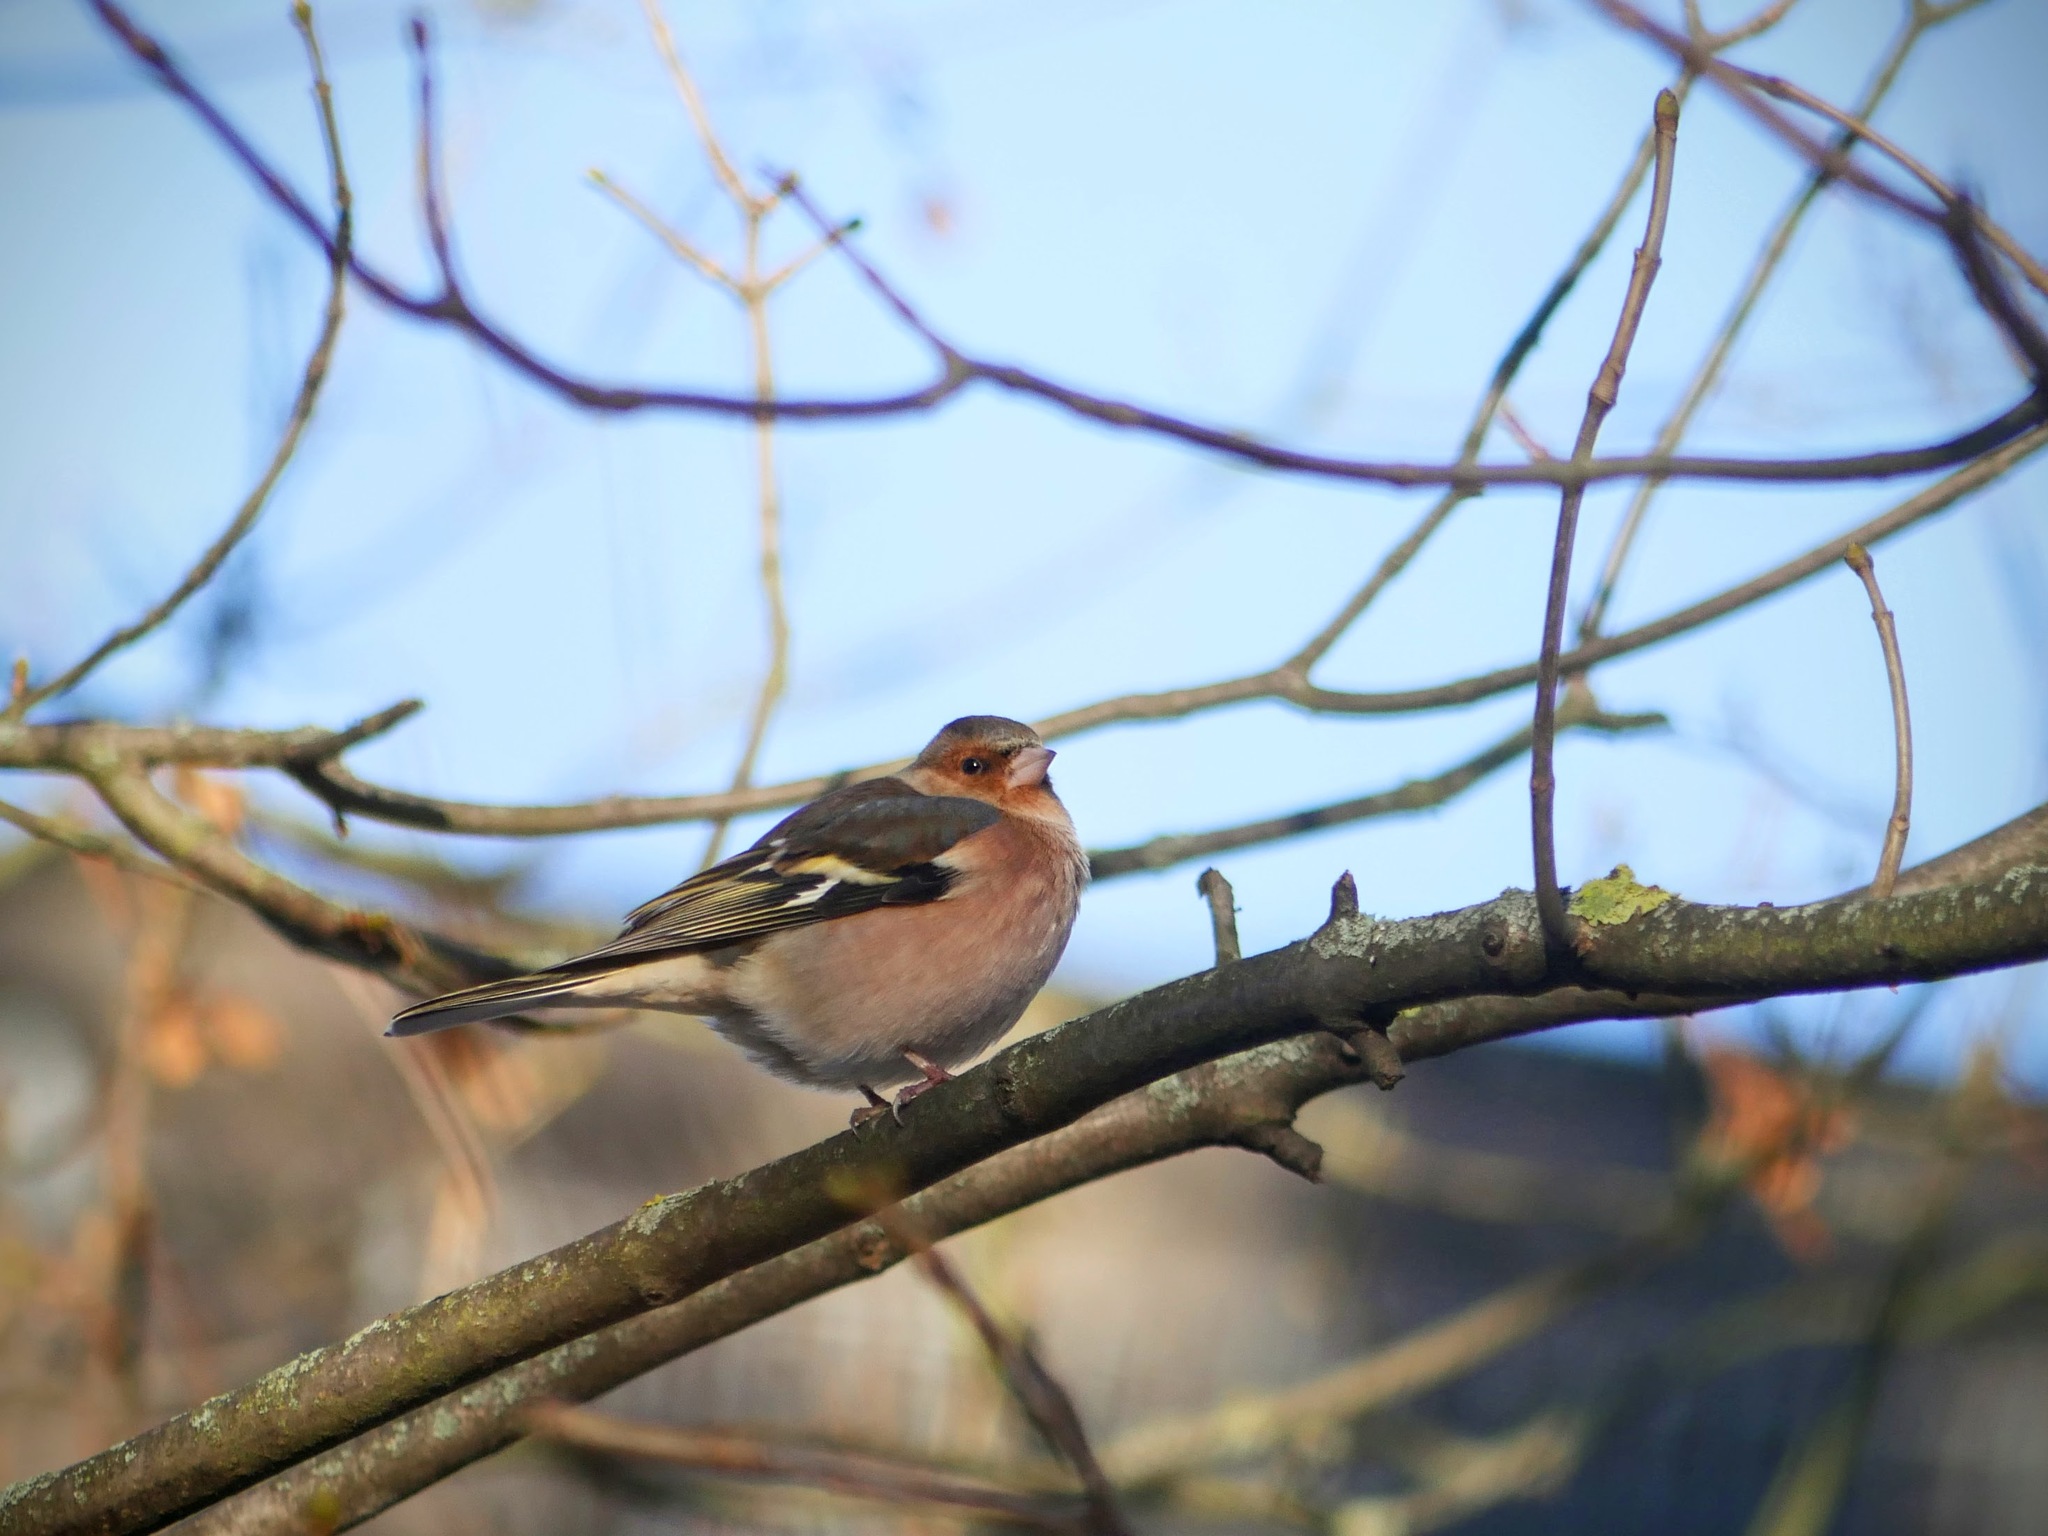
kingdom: Animalia
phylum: Chordata
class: Aves
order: Passeriformes
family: Fringillidae
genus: Fringilla
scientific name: Fringilla coelebs
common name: Common chaffinch
